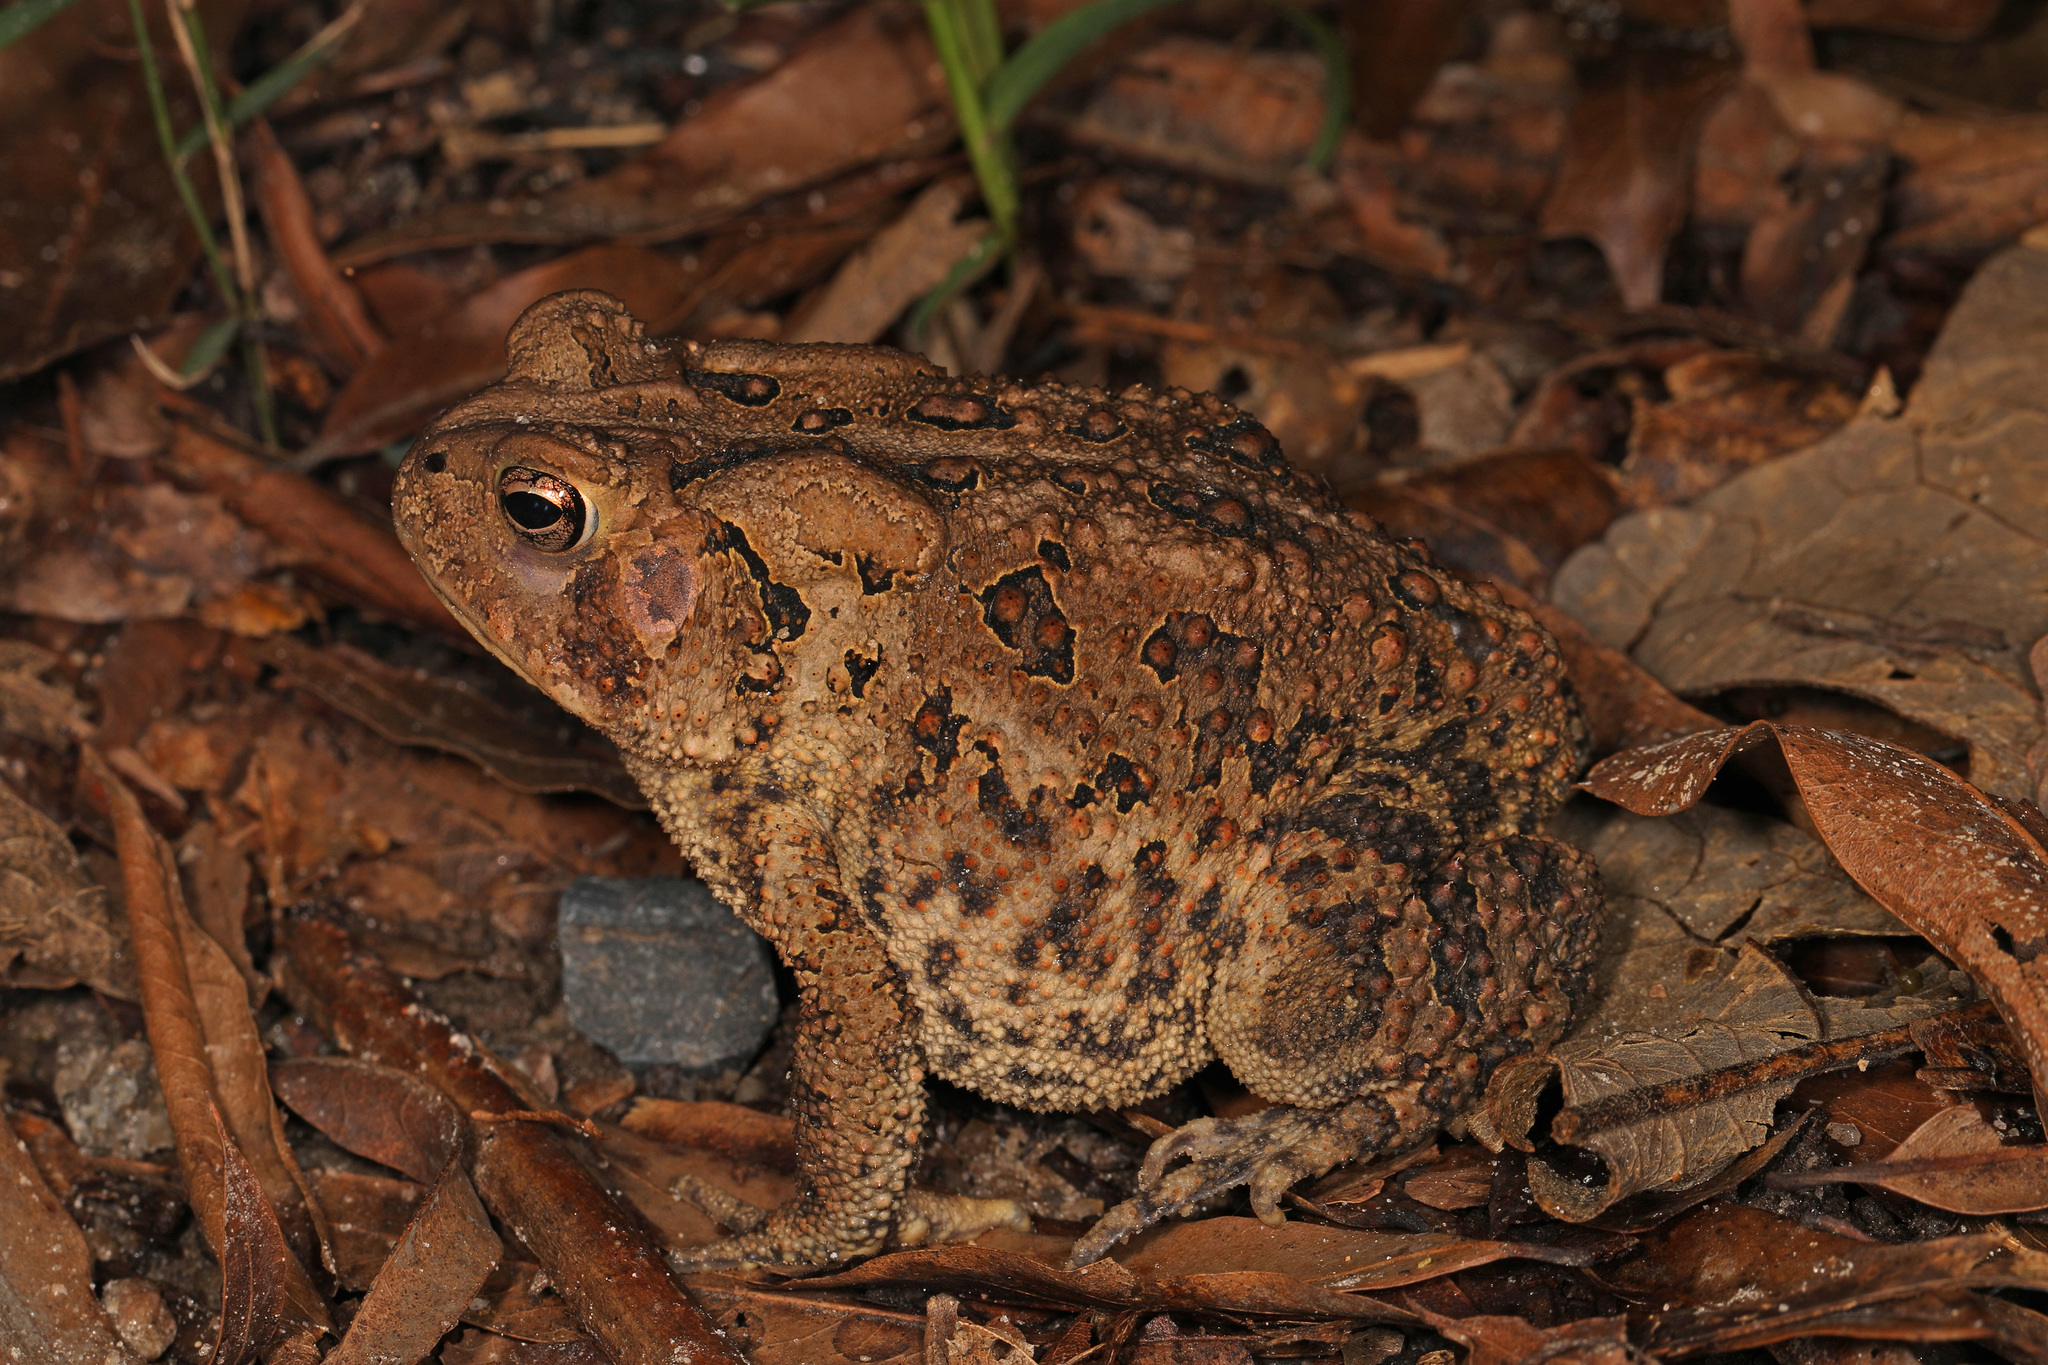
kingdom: Animalia
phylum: Chordata
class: Amphibia
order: Anura
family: Bufonidae
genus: Anaxyrus
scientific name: Anaxyrus americanus
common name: American toad
